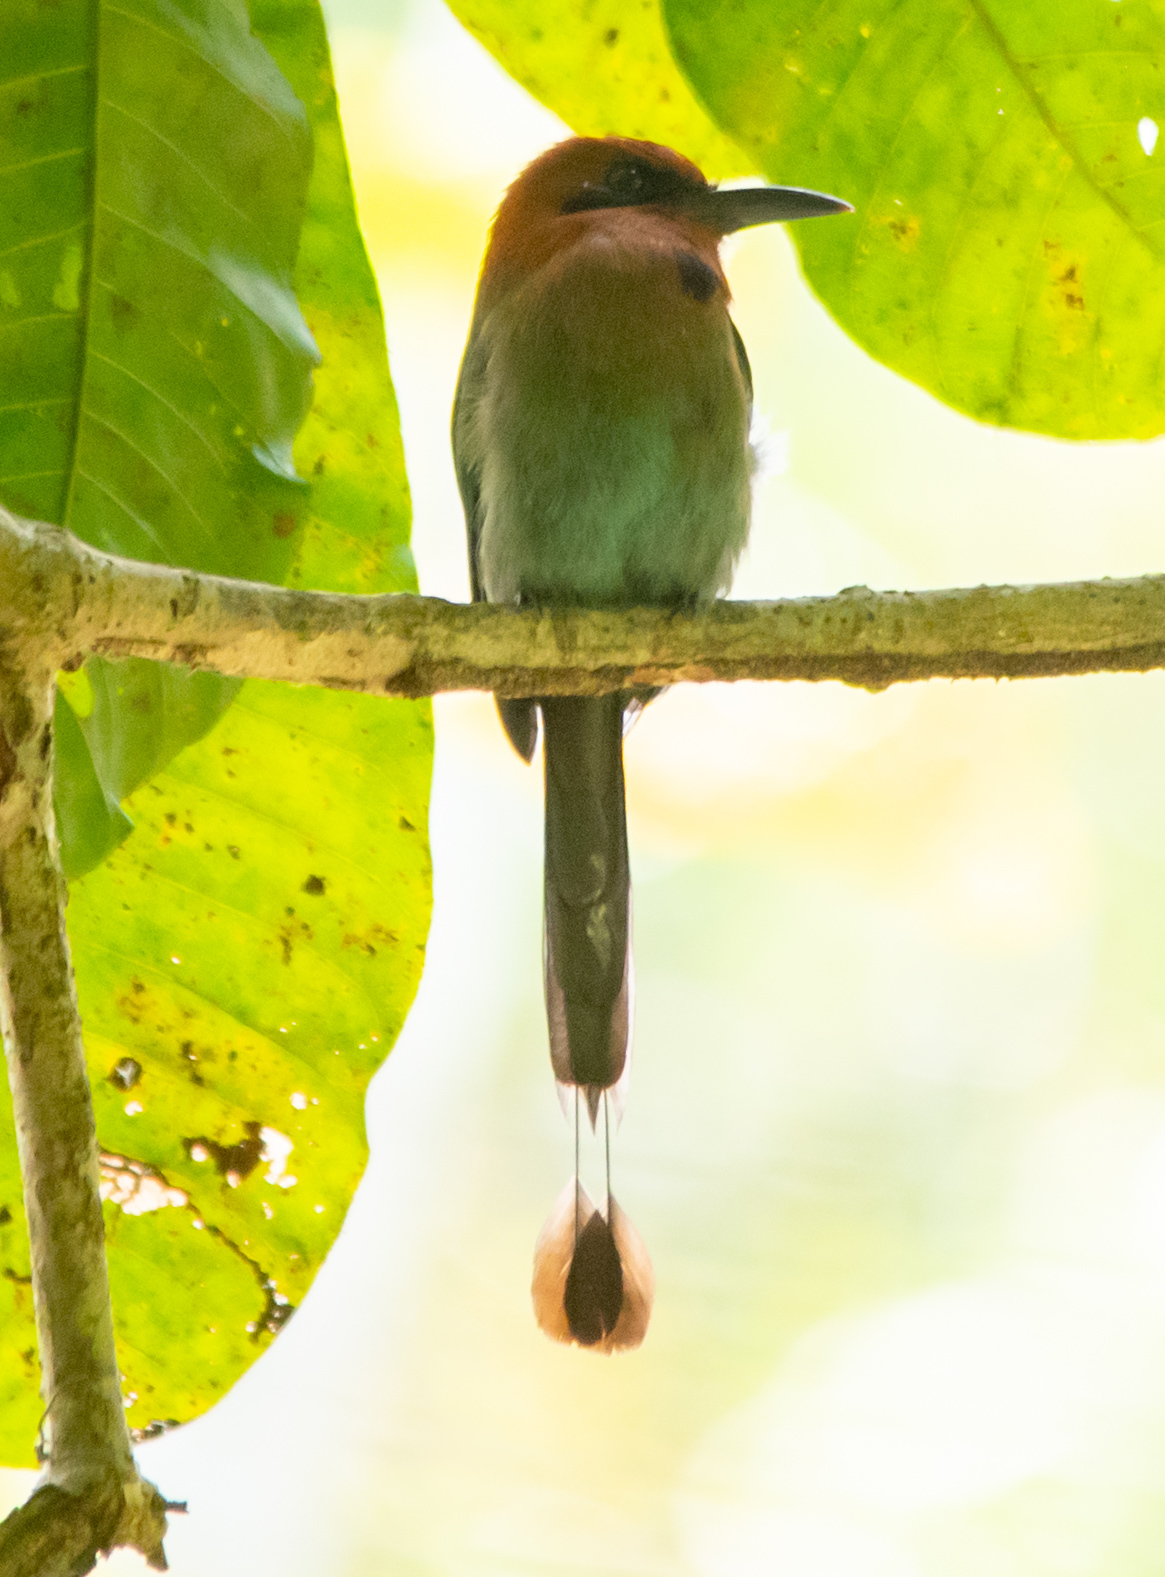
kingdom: Animalia
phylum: Chordata
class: Aves
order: Coraciiformes
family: Momotidae
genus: Electron
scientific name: Electron platyrhynchum
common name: Broad-billed motmot
